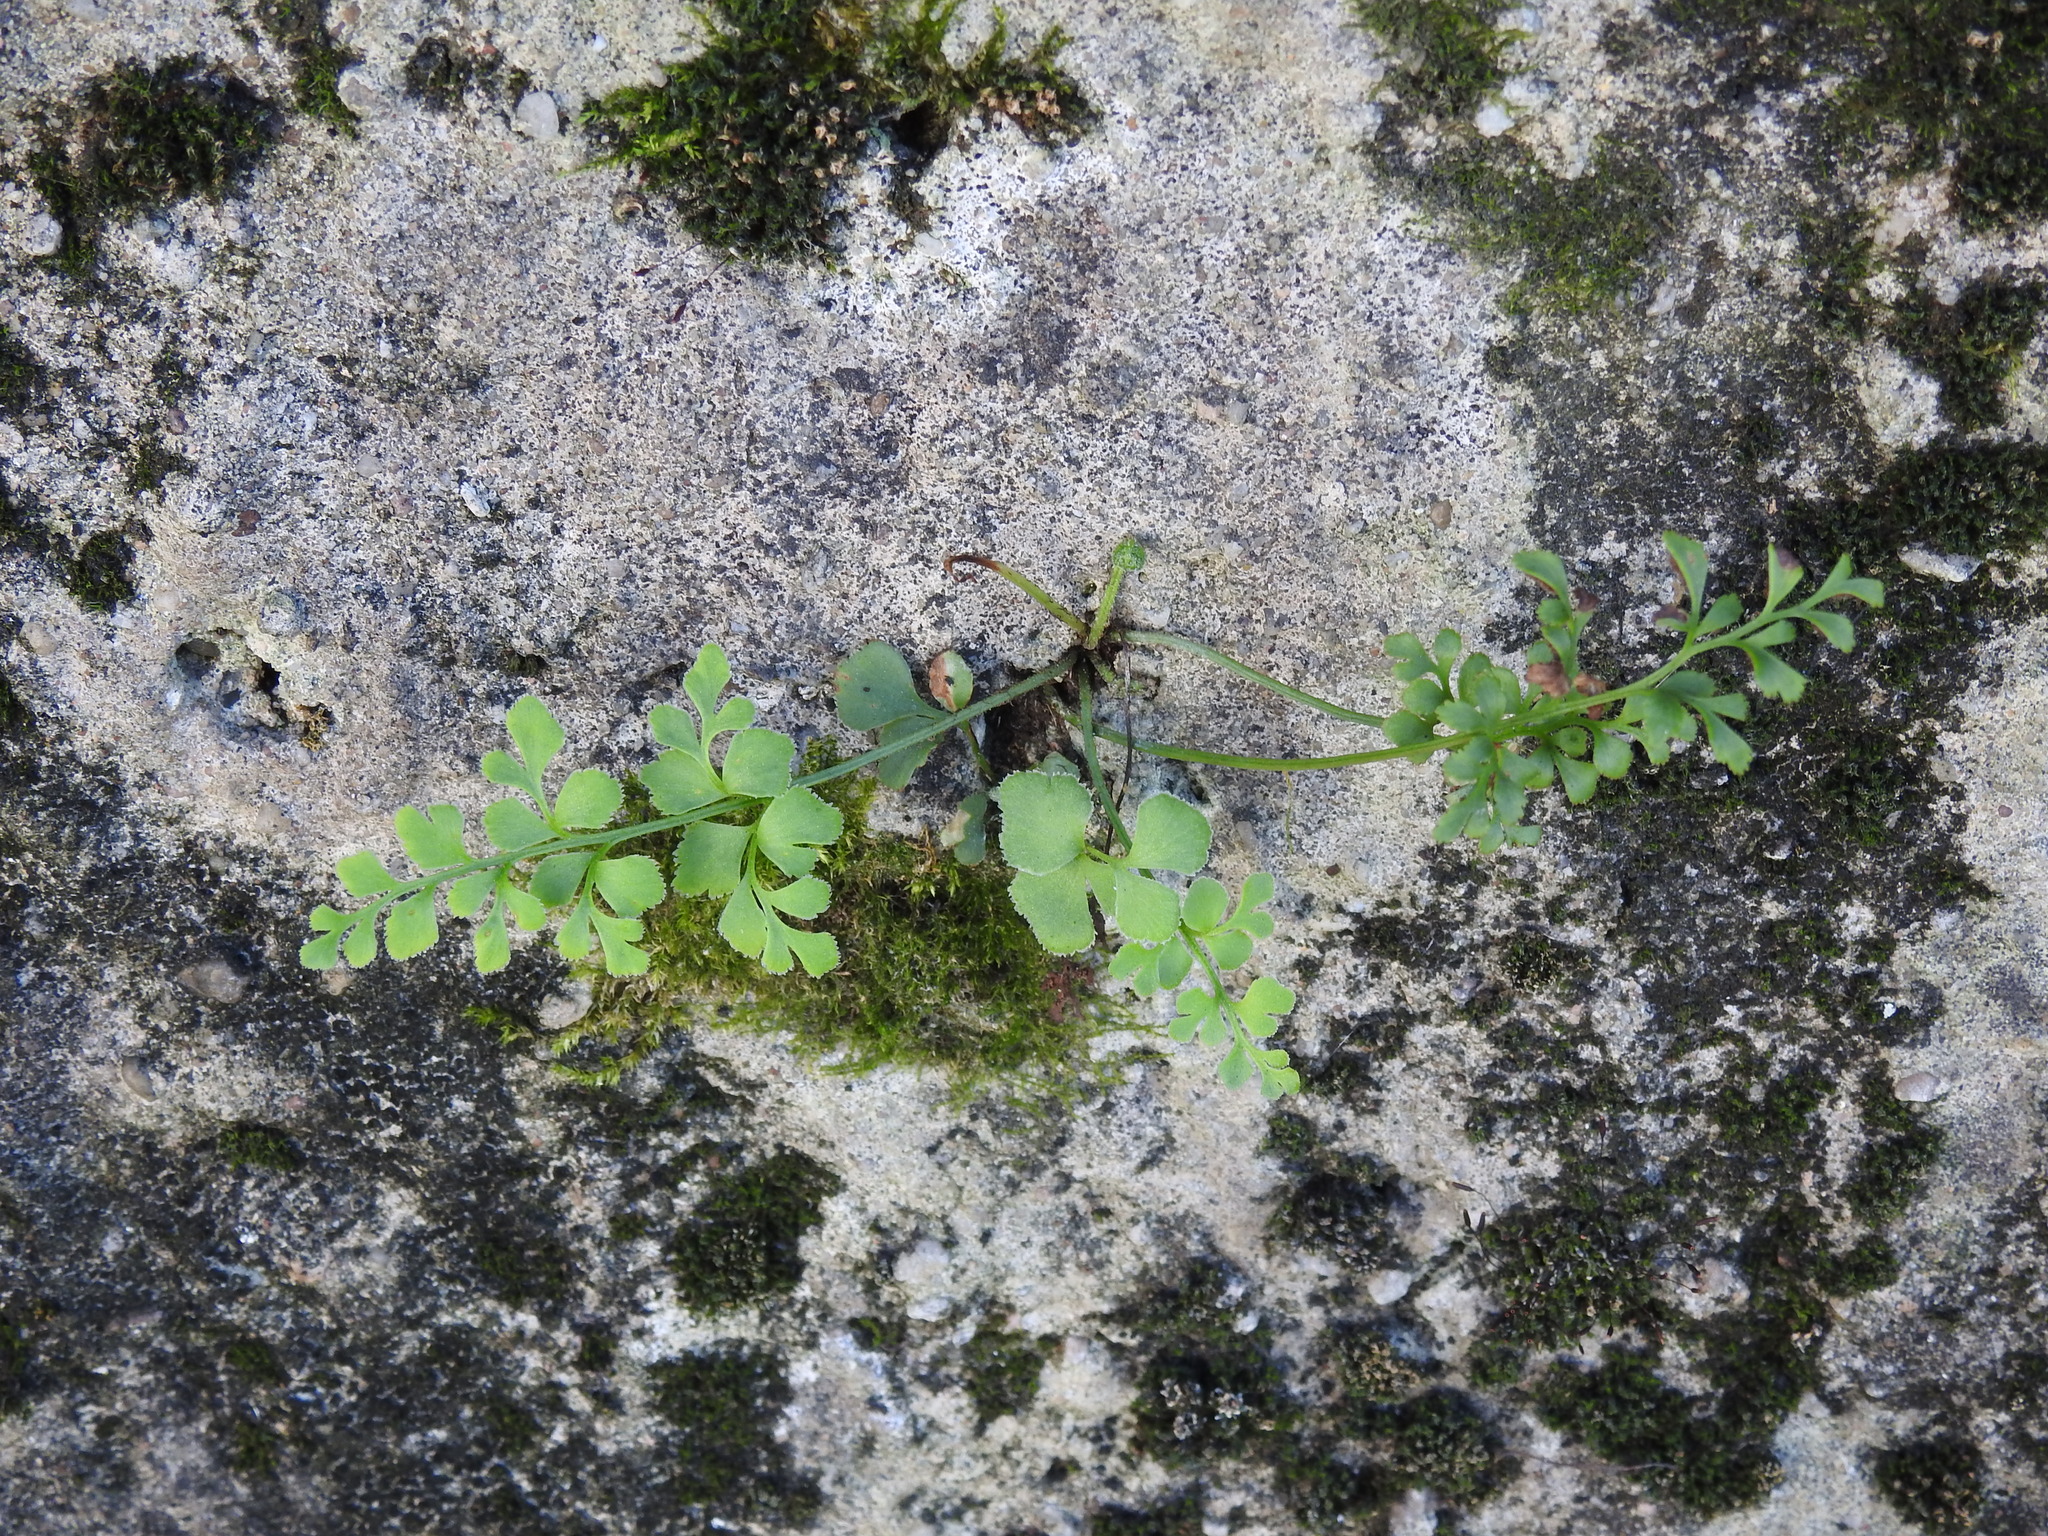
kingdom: Plantae
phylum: Tracheophyta
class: Polypodiopsida
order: Polypodiales
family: Aspleniaceae
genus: Asplenium
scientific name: Asplenium ruta-muraria
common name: Wall-rue
